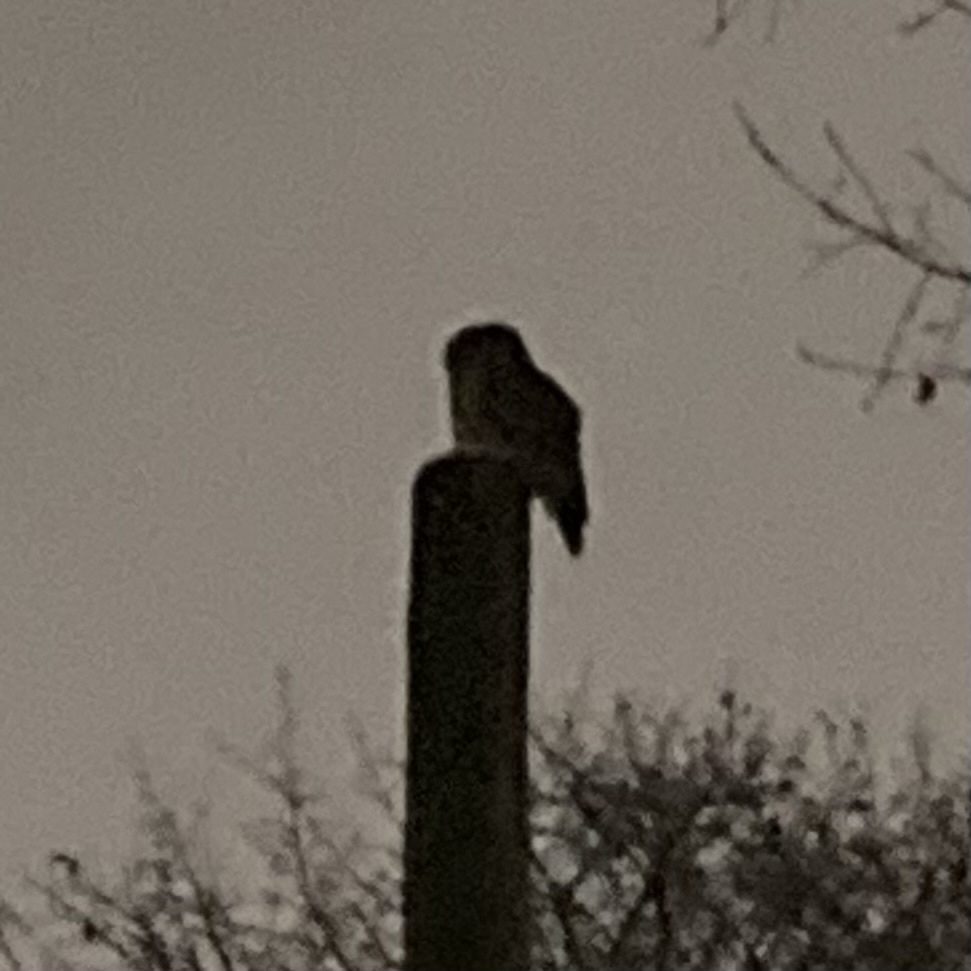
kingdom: Animalia
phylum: Chordata
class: Aves
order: Strigiformes
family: Strigidae
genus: Strix
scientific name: Strix varia
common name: Barred owl
